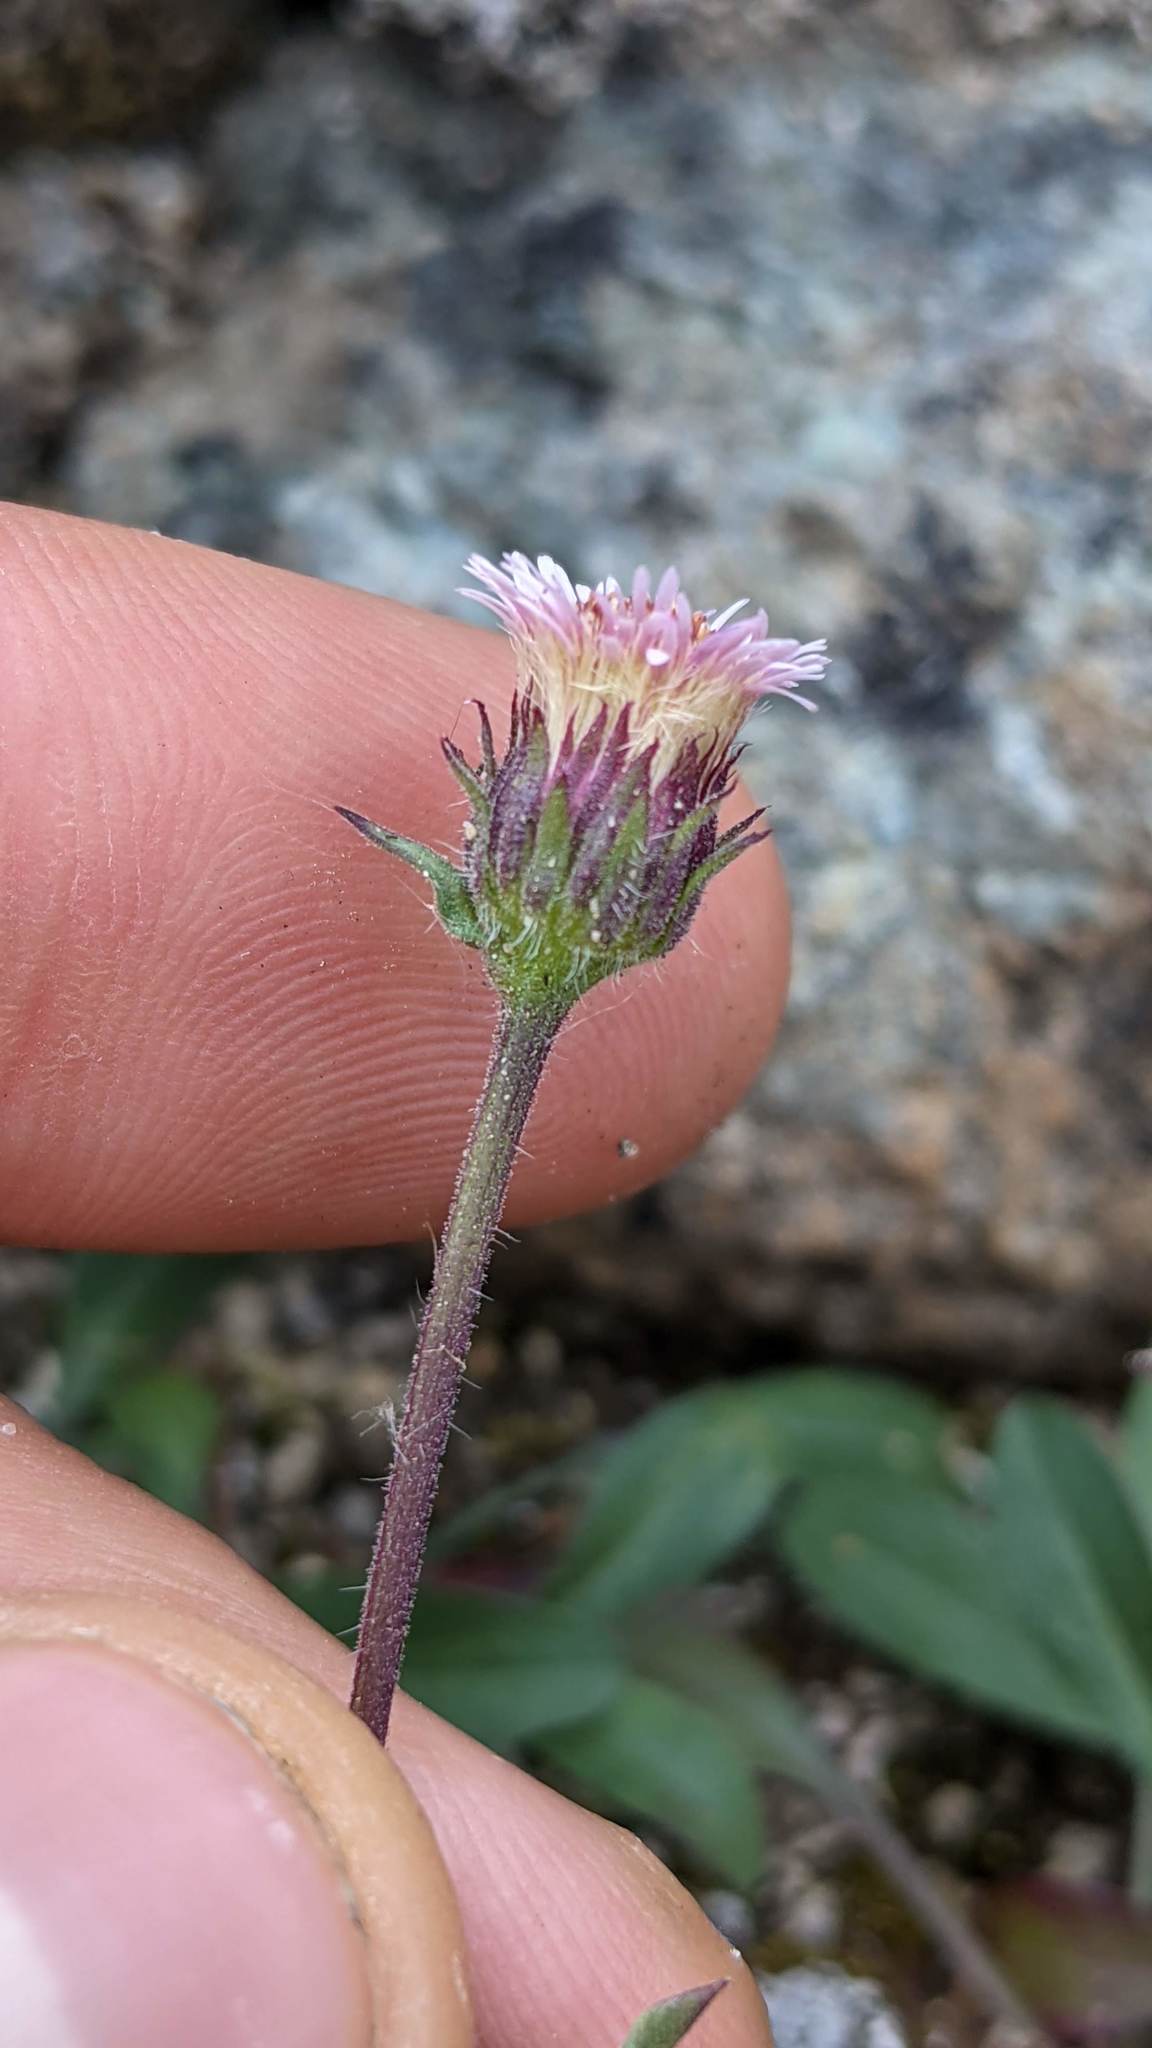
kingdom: Plantae
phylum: Tracheophyta
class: Magnoliopsida
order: Asterales
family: Asteraceae
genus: Erigeron
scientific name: Erigeron nivalis
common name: Snow fleabane
